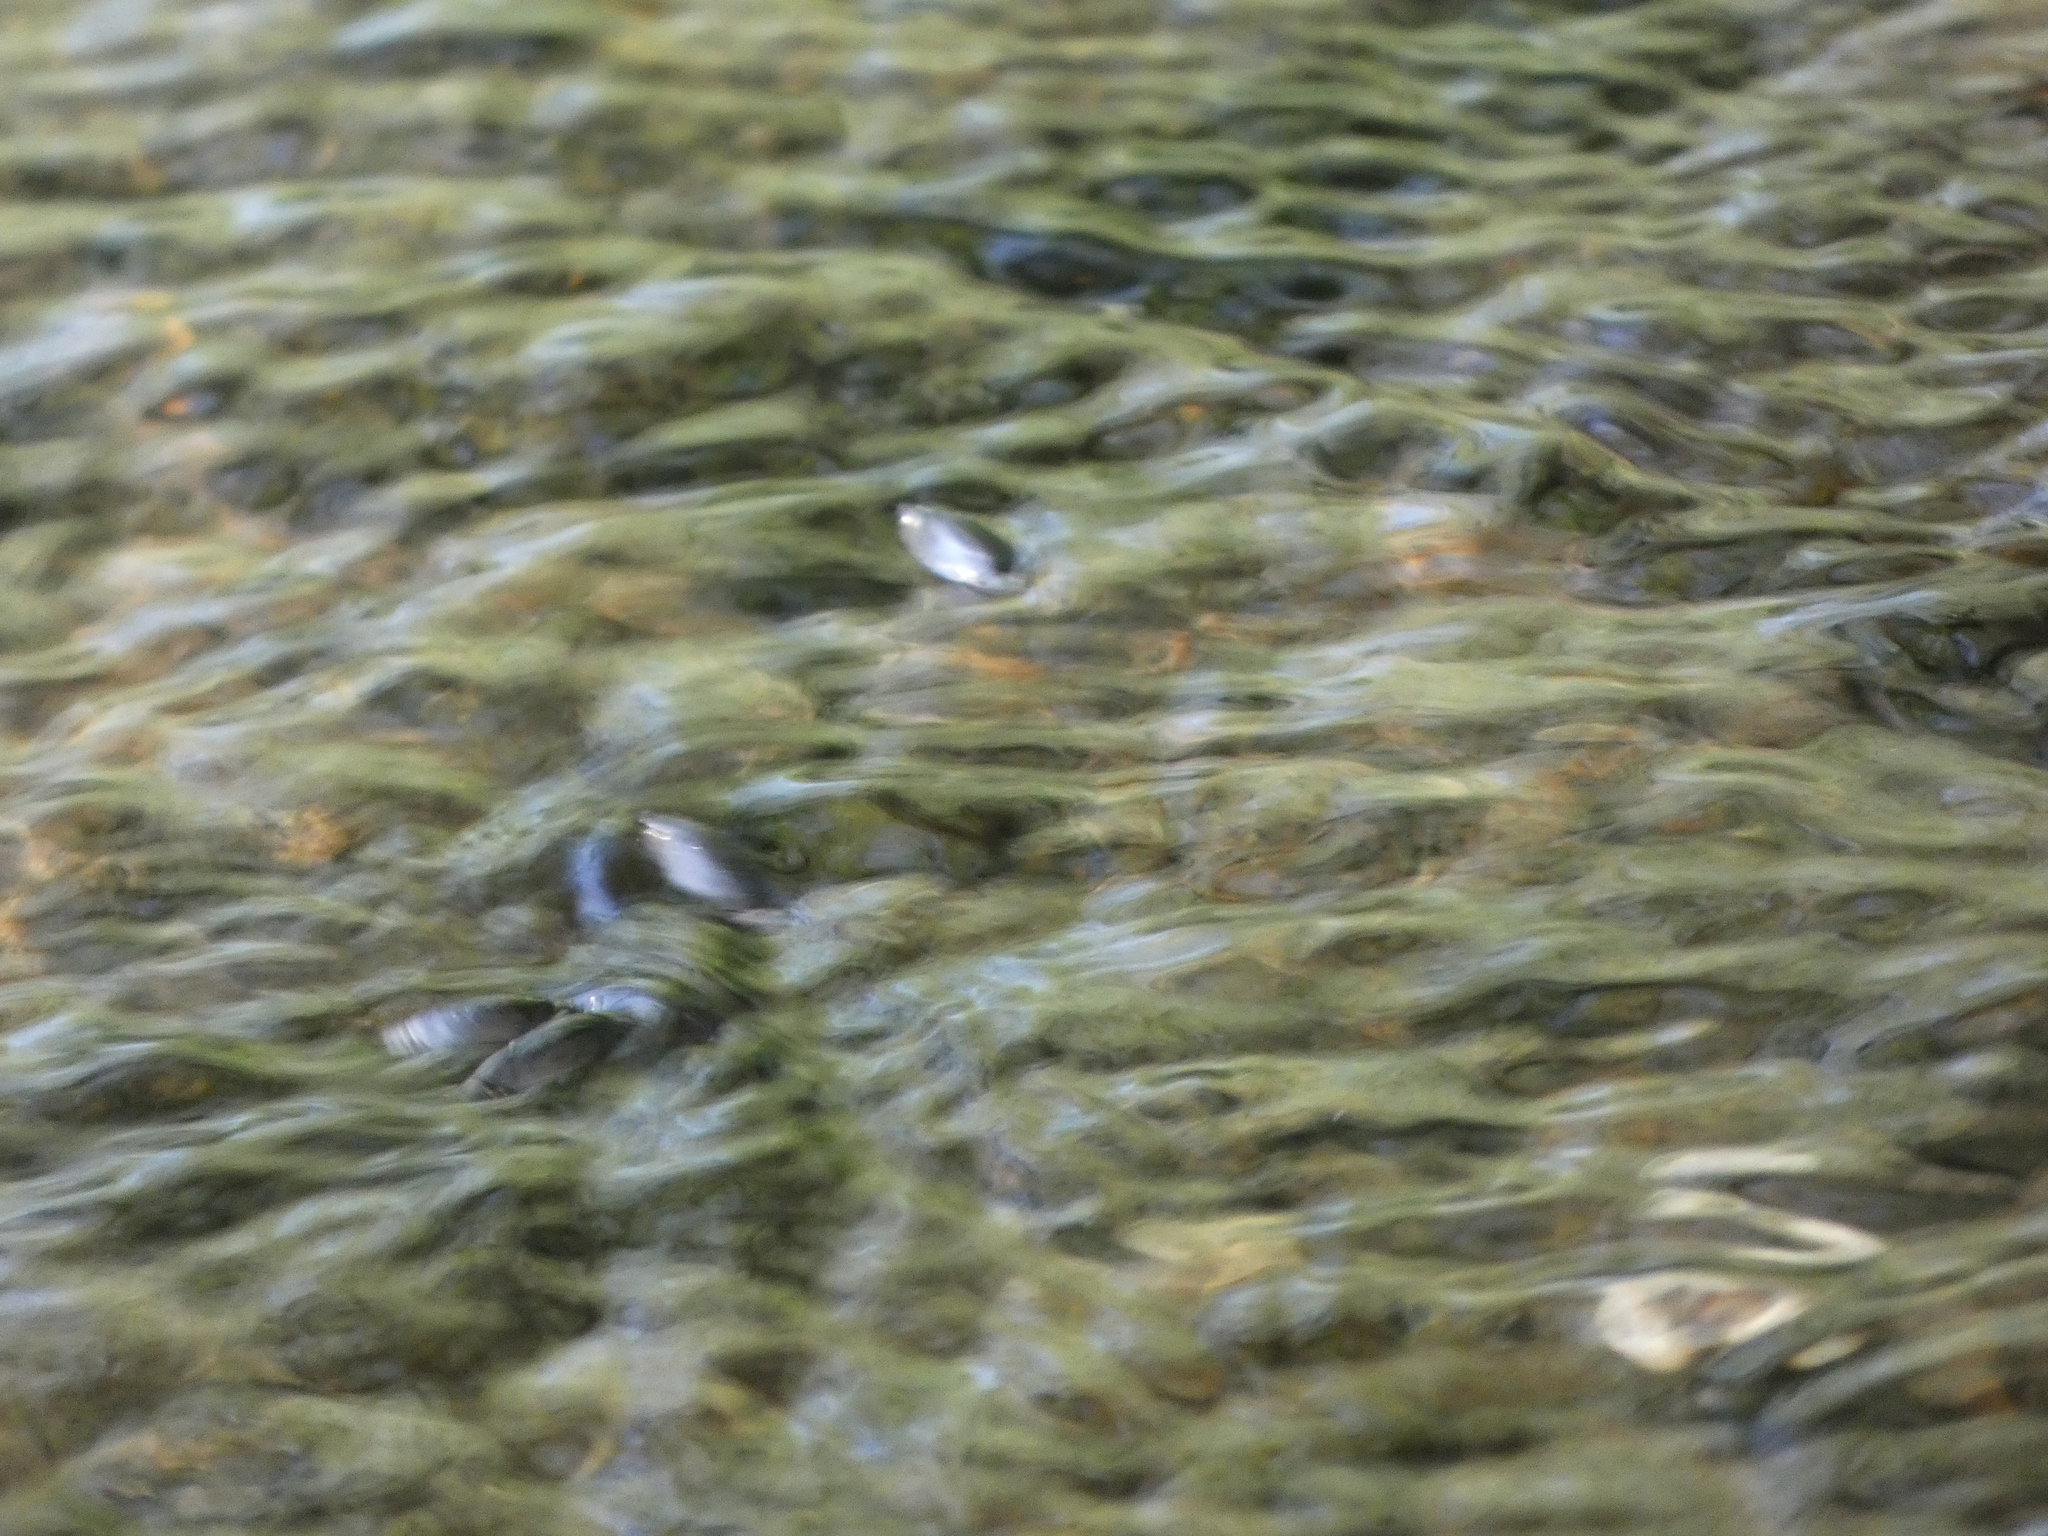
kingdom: Animalia
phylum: Arthropoda
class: Insecta
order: Coleoptera
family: Gyrinidae
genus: Dineutus
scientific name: Dineutus
